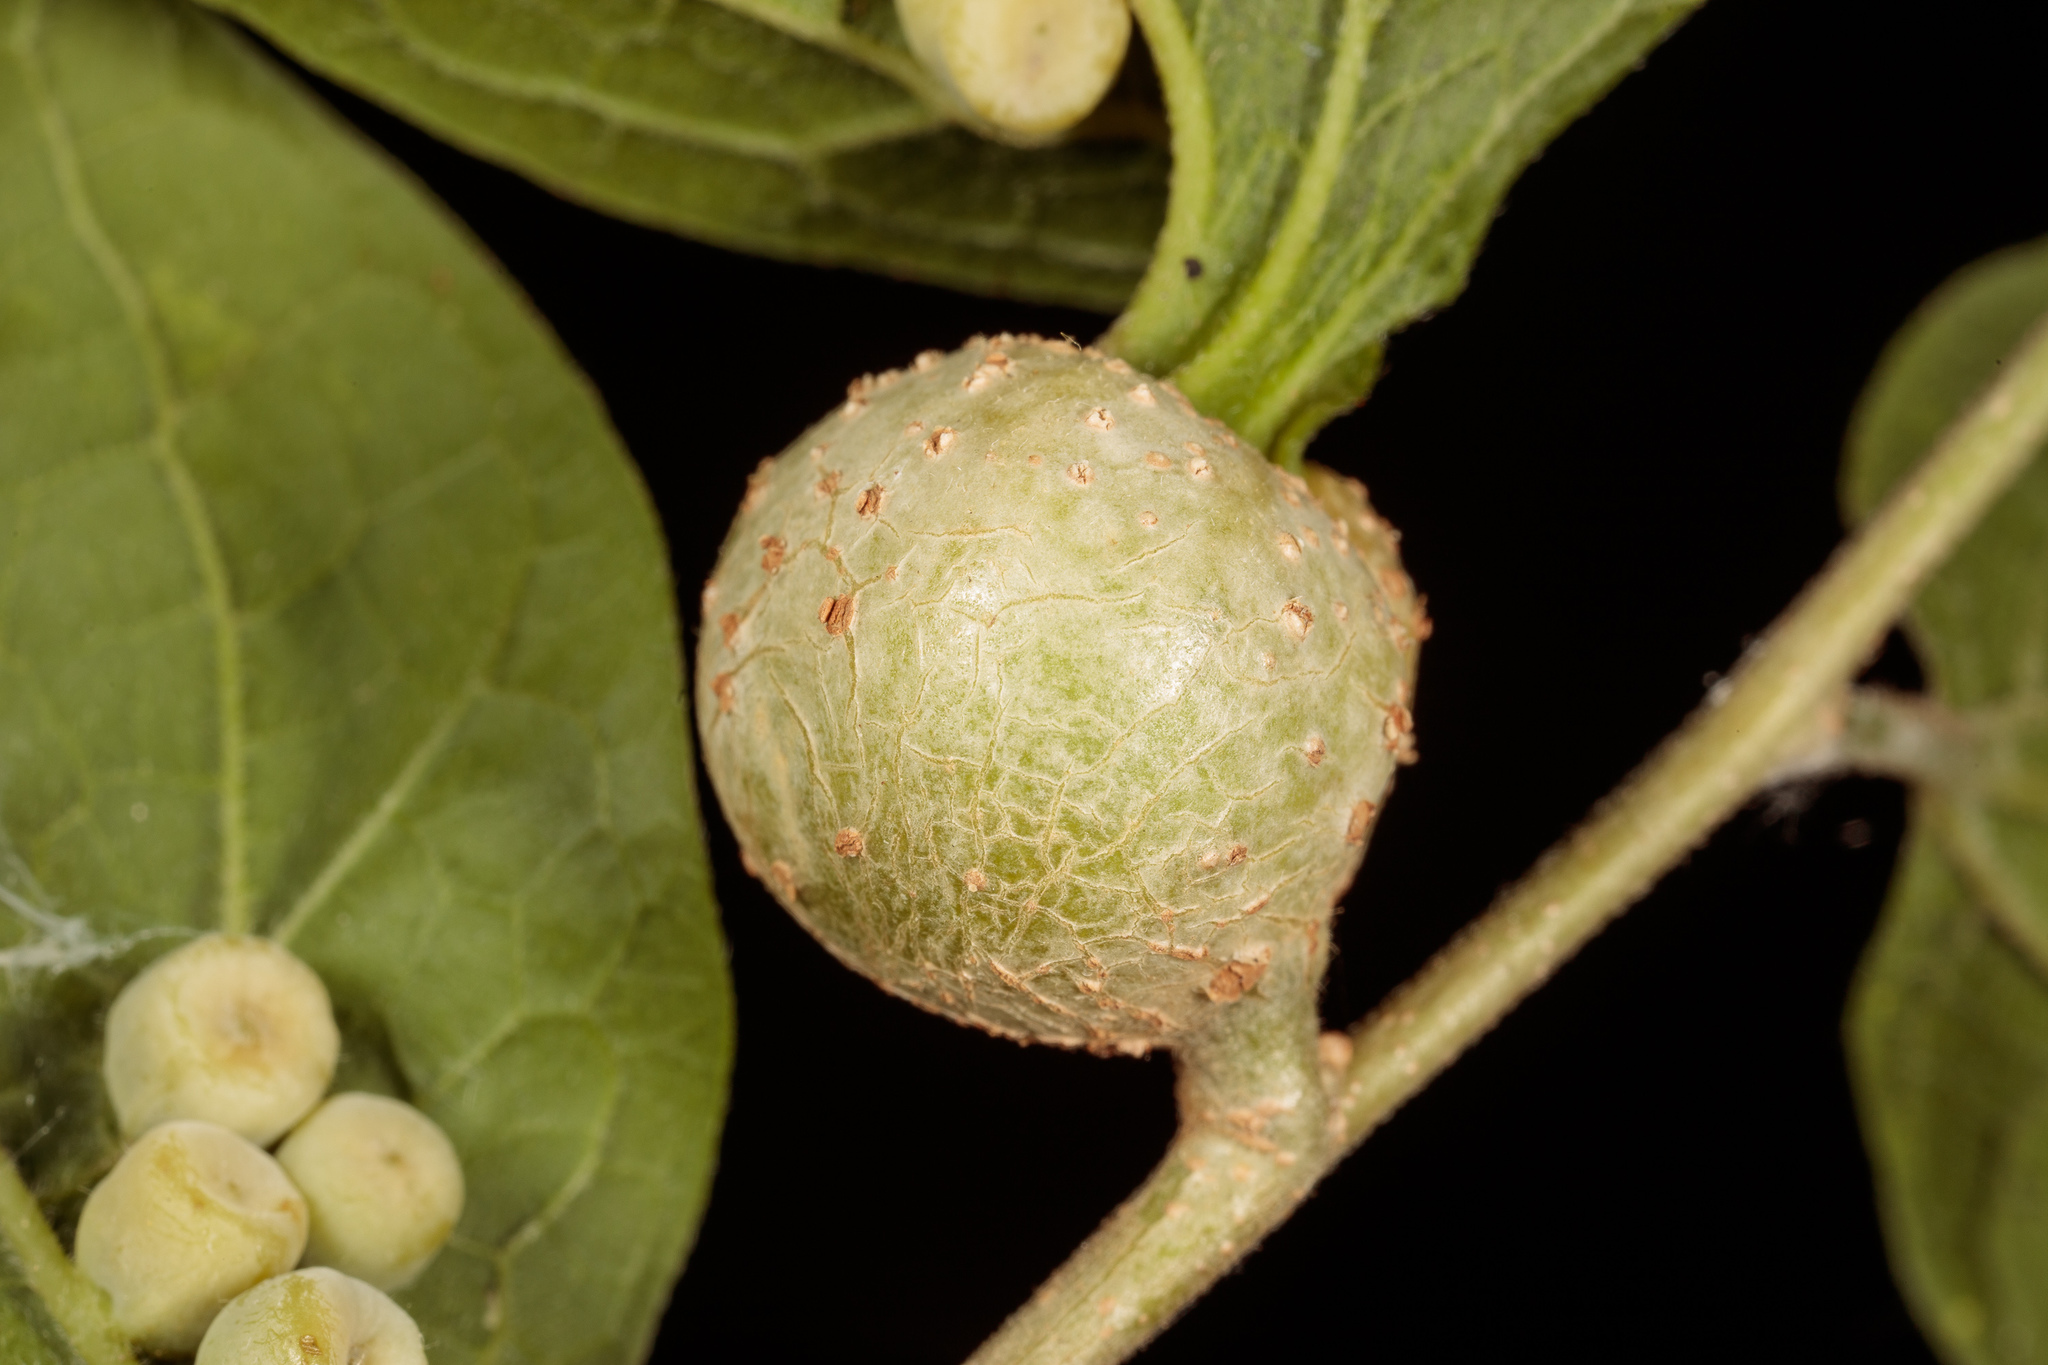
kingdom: Animalia
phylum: Arthropoda
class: Insecta
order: Hemiptera
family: Aphalaridae
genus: Pachypsylla
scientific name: Pachypsylla venusta
